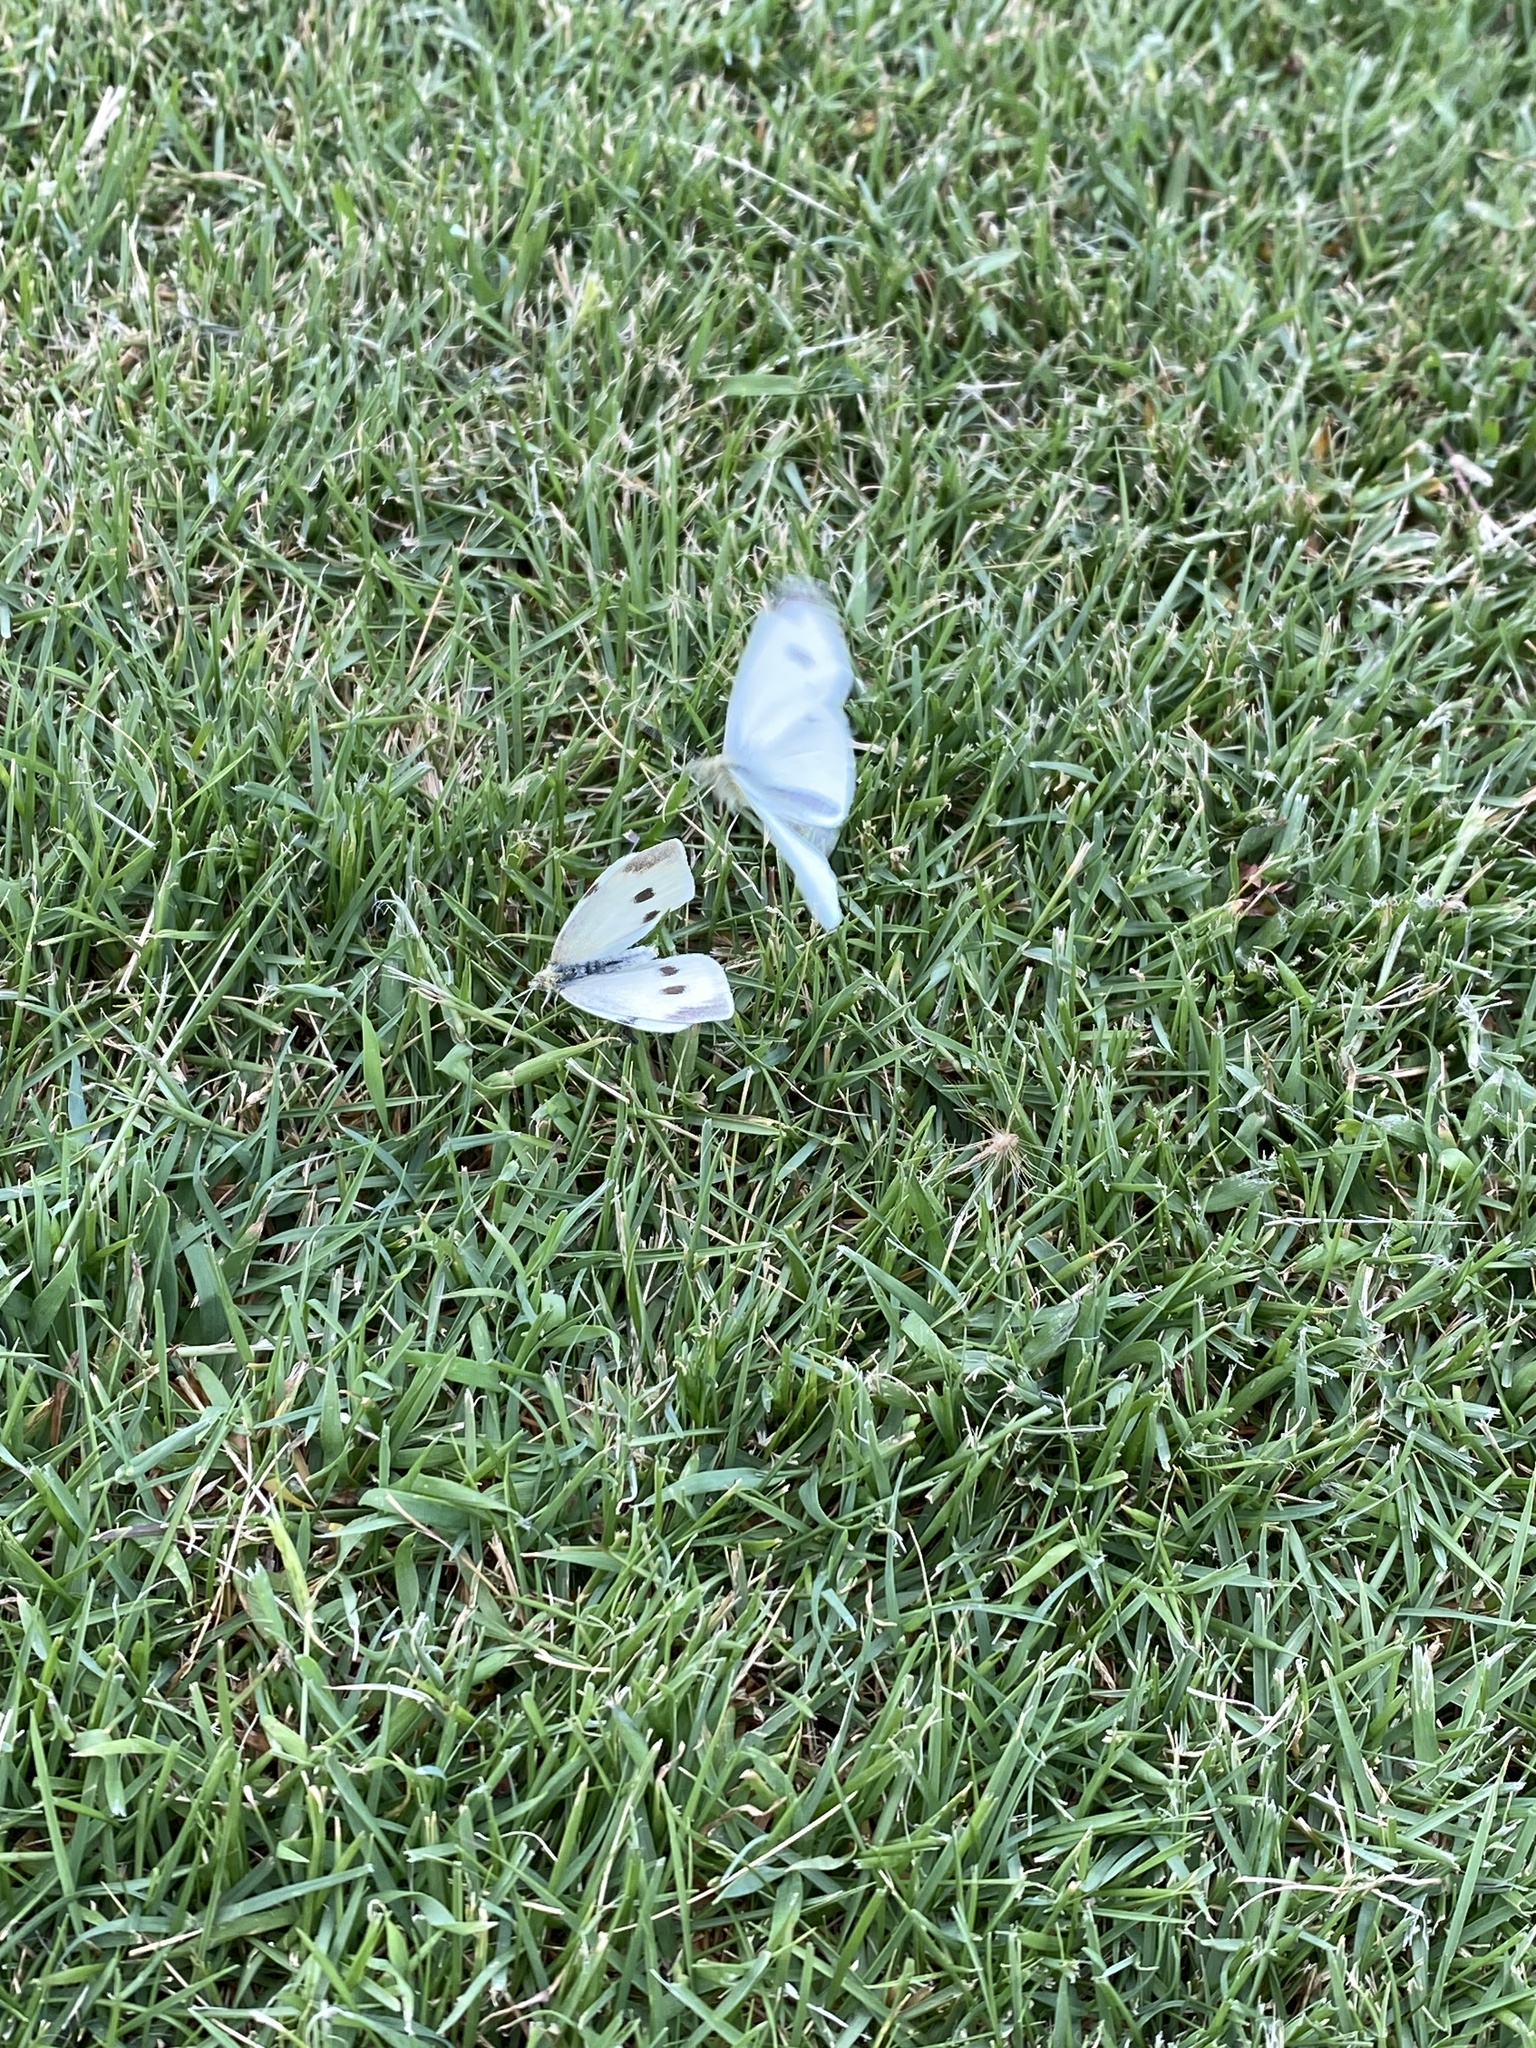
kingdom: Animalia
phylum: Arthropoda
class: Insecta
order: Lepidoptera
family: Pieridae
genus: Pieris
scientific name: Pieris rapae
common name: Small white
